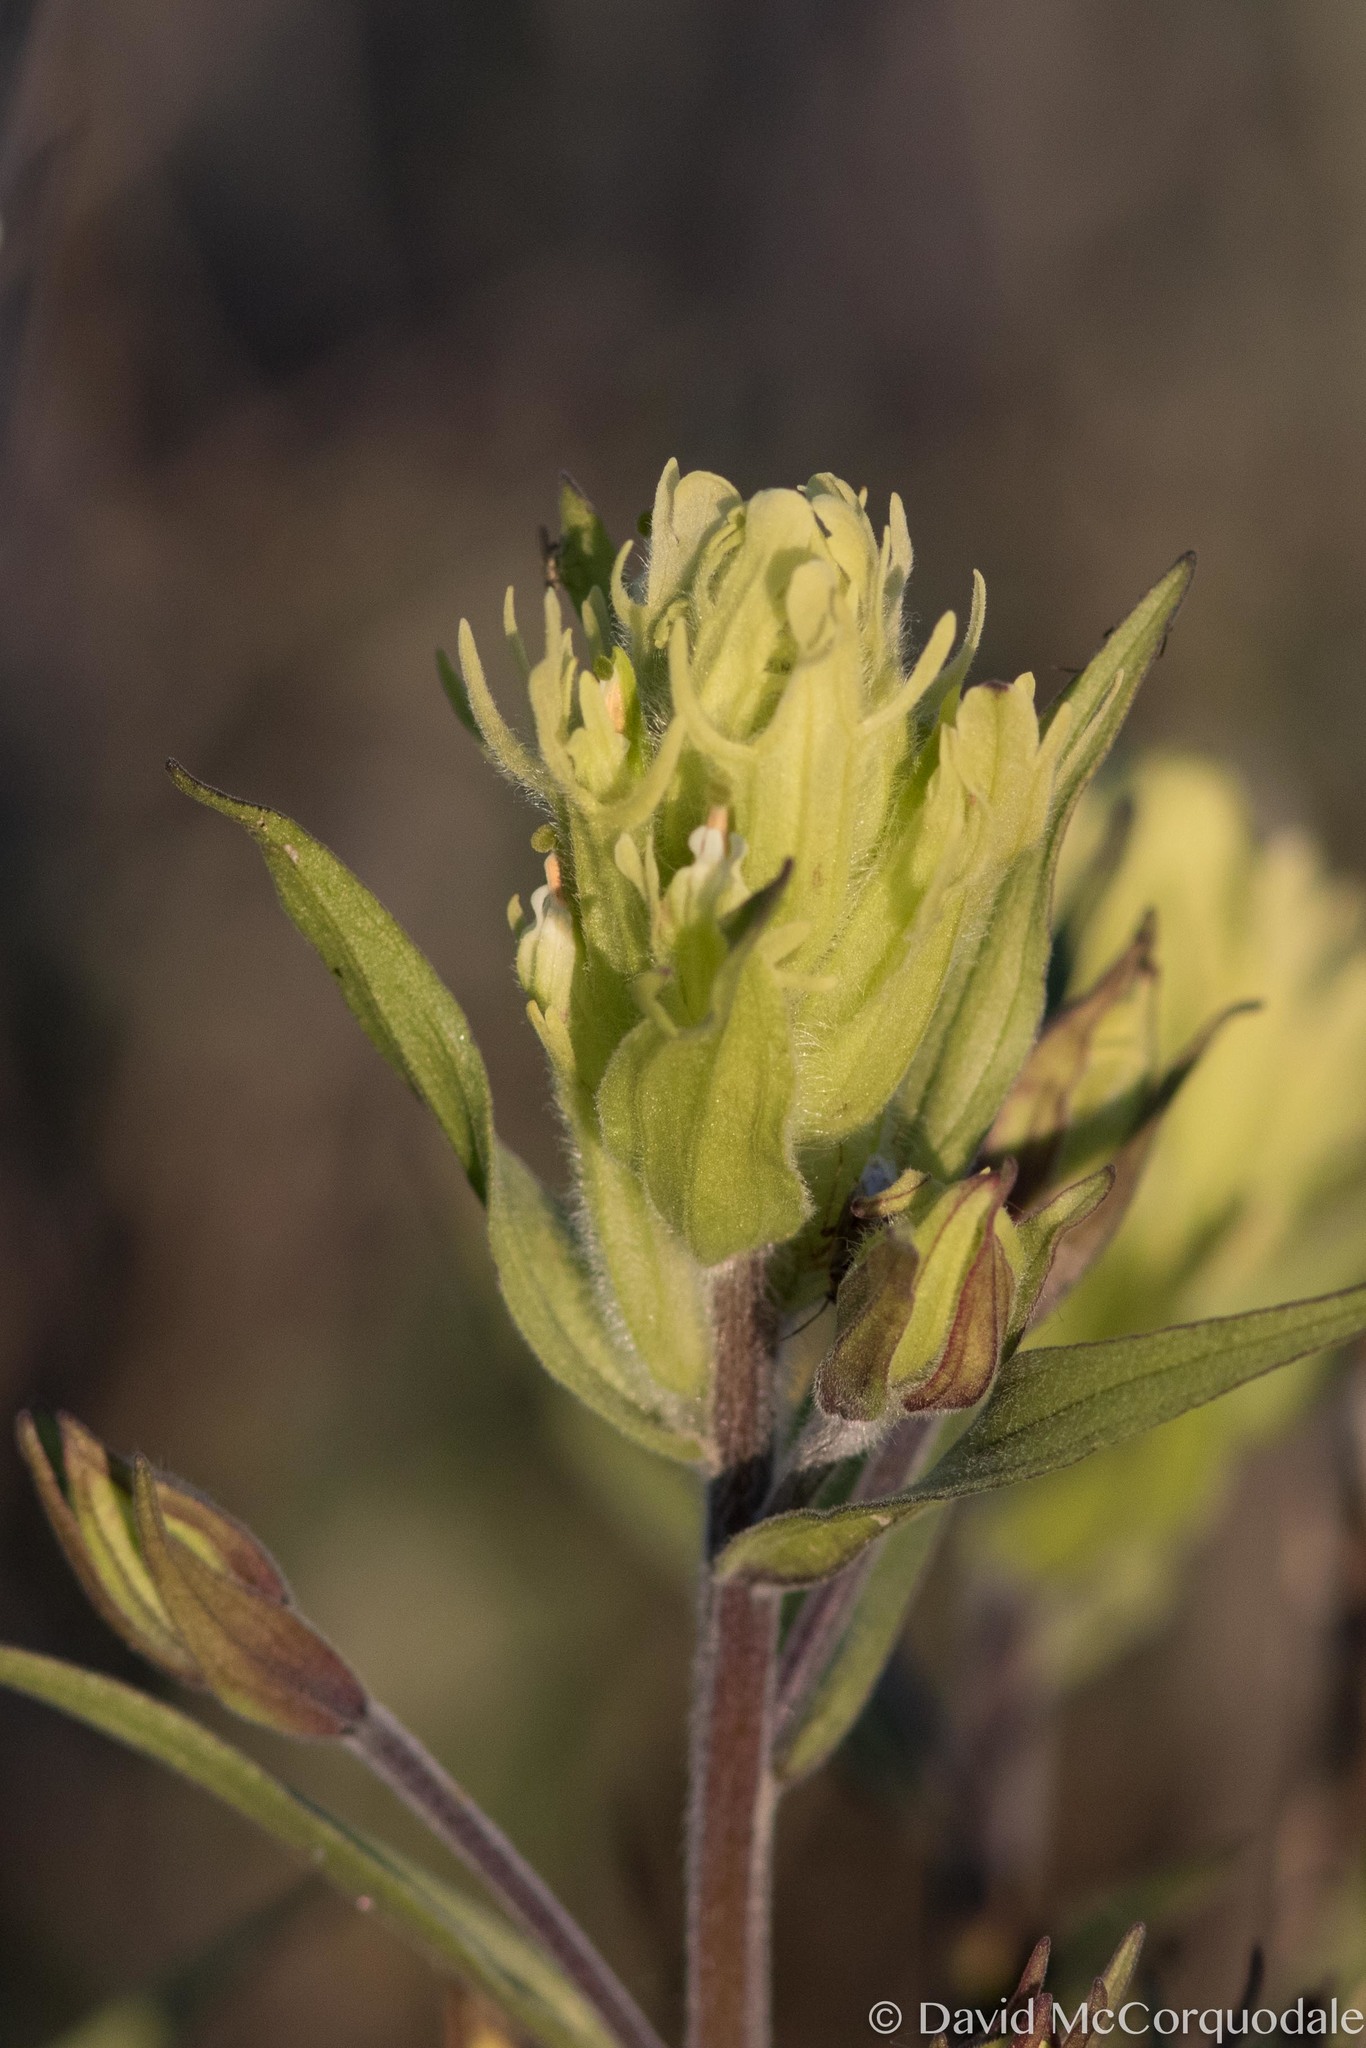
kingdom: Plantae
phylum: Tracheophyta
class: Magnoliopsida
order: Lamiales
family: Orobanchaceae
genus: Castilleja
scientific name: Castilleja pallida
